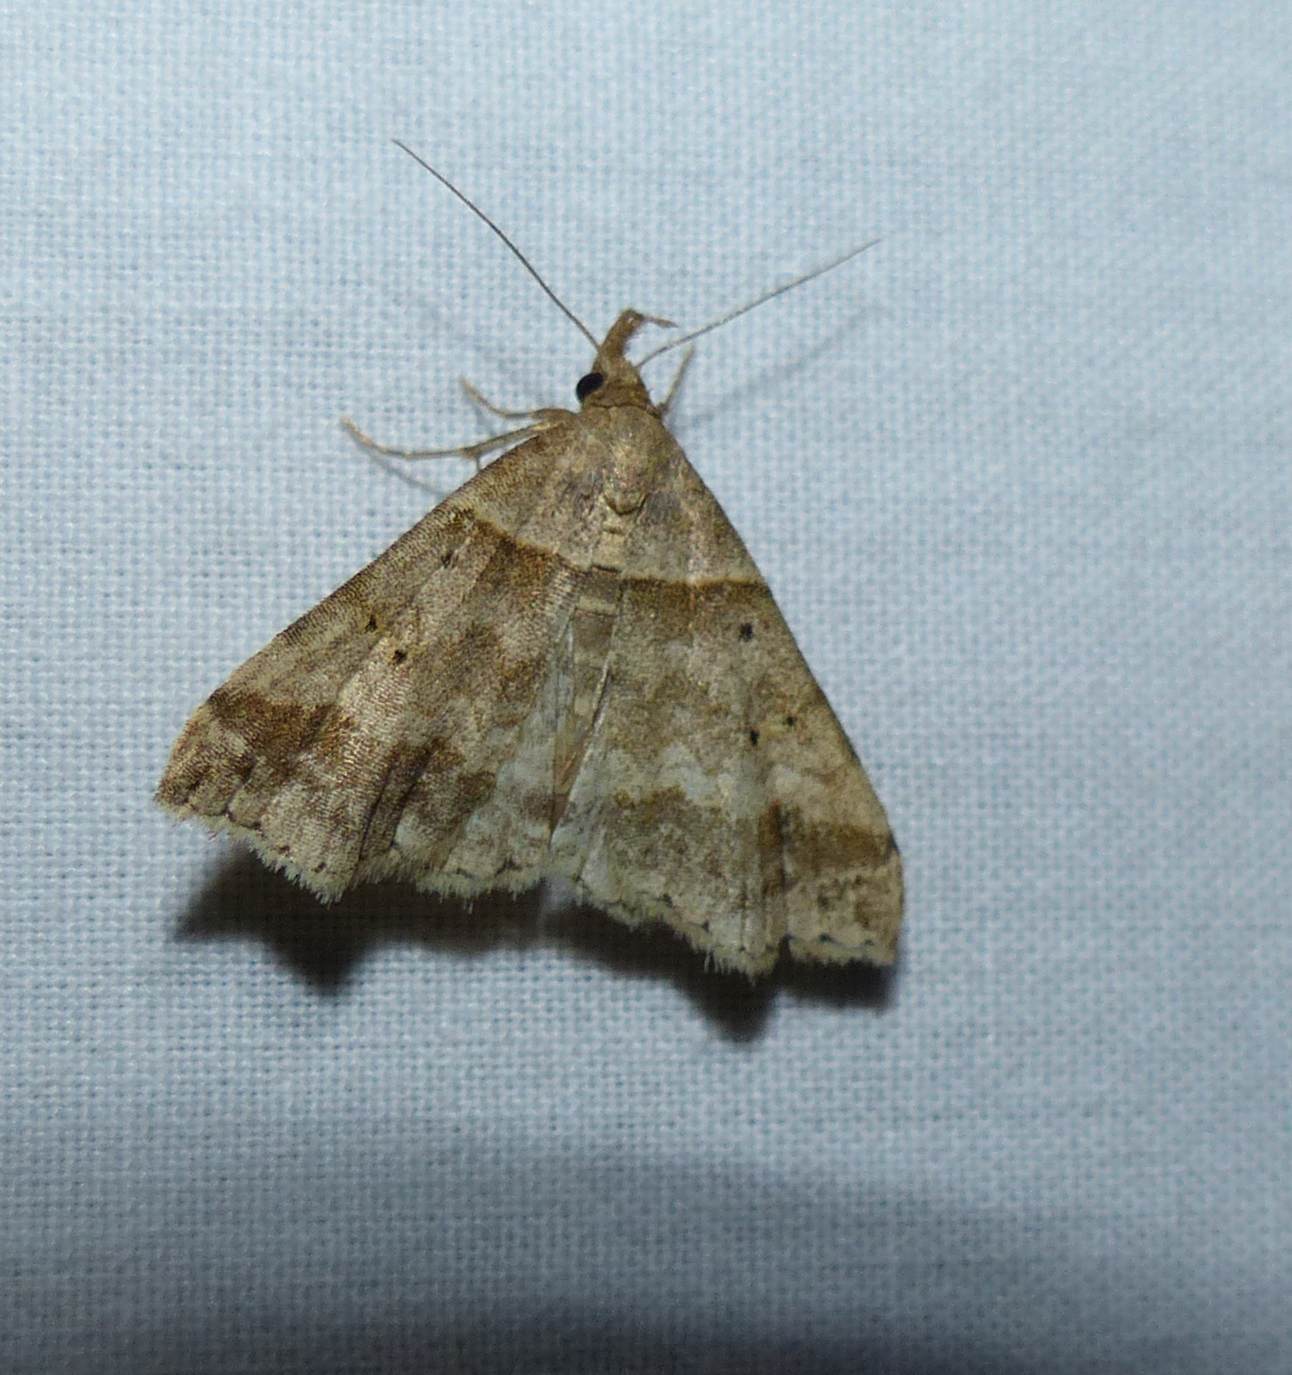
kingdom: Animalia
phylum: Arthropoda
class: Insecta
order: Lepidoptera
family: Erebidae
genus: Phaeolita
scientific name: Phaeolita pyramusalis
